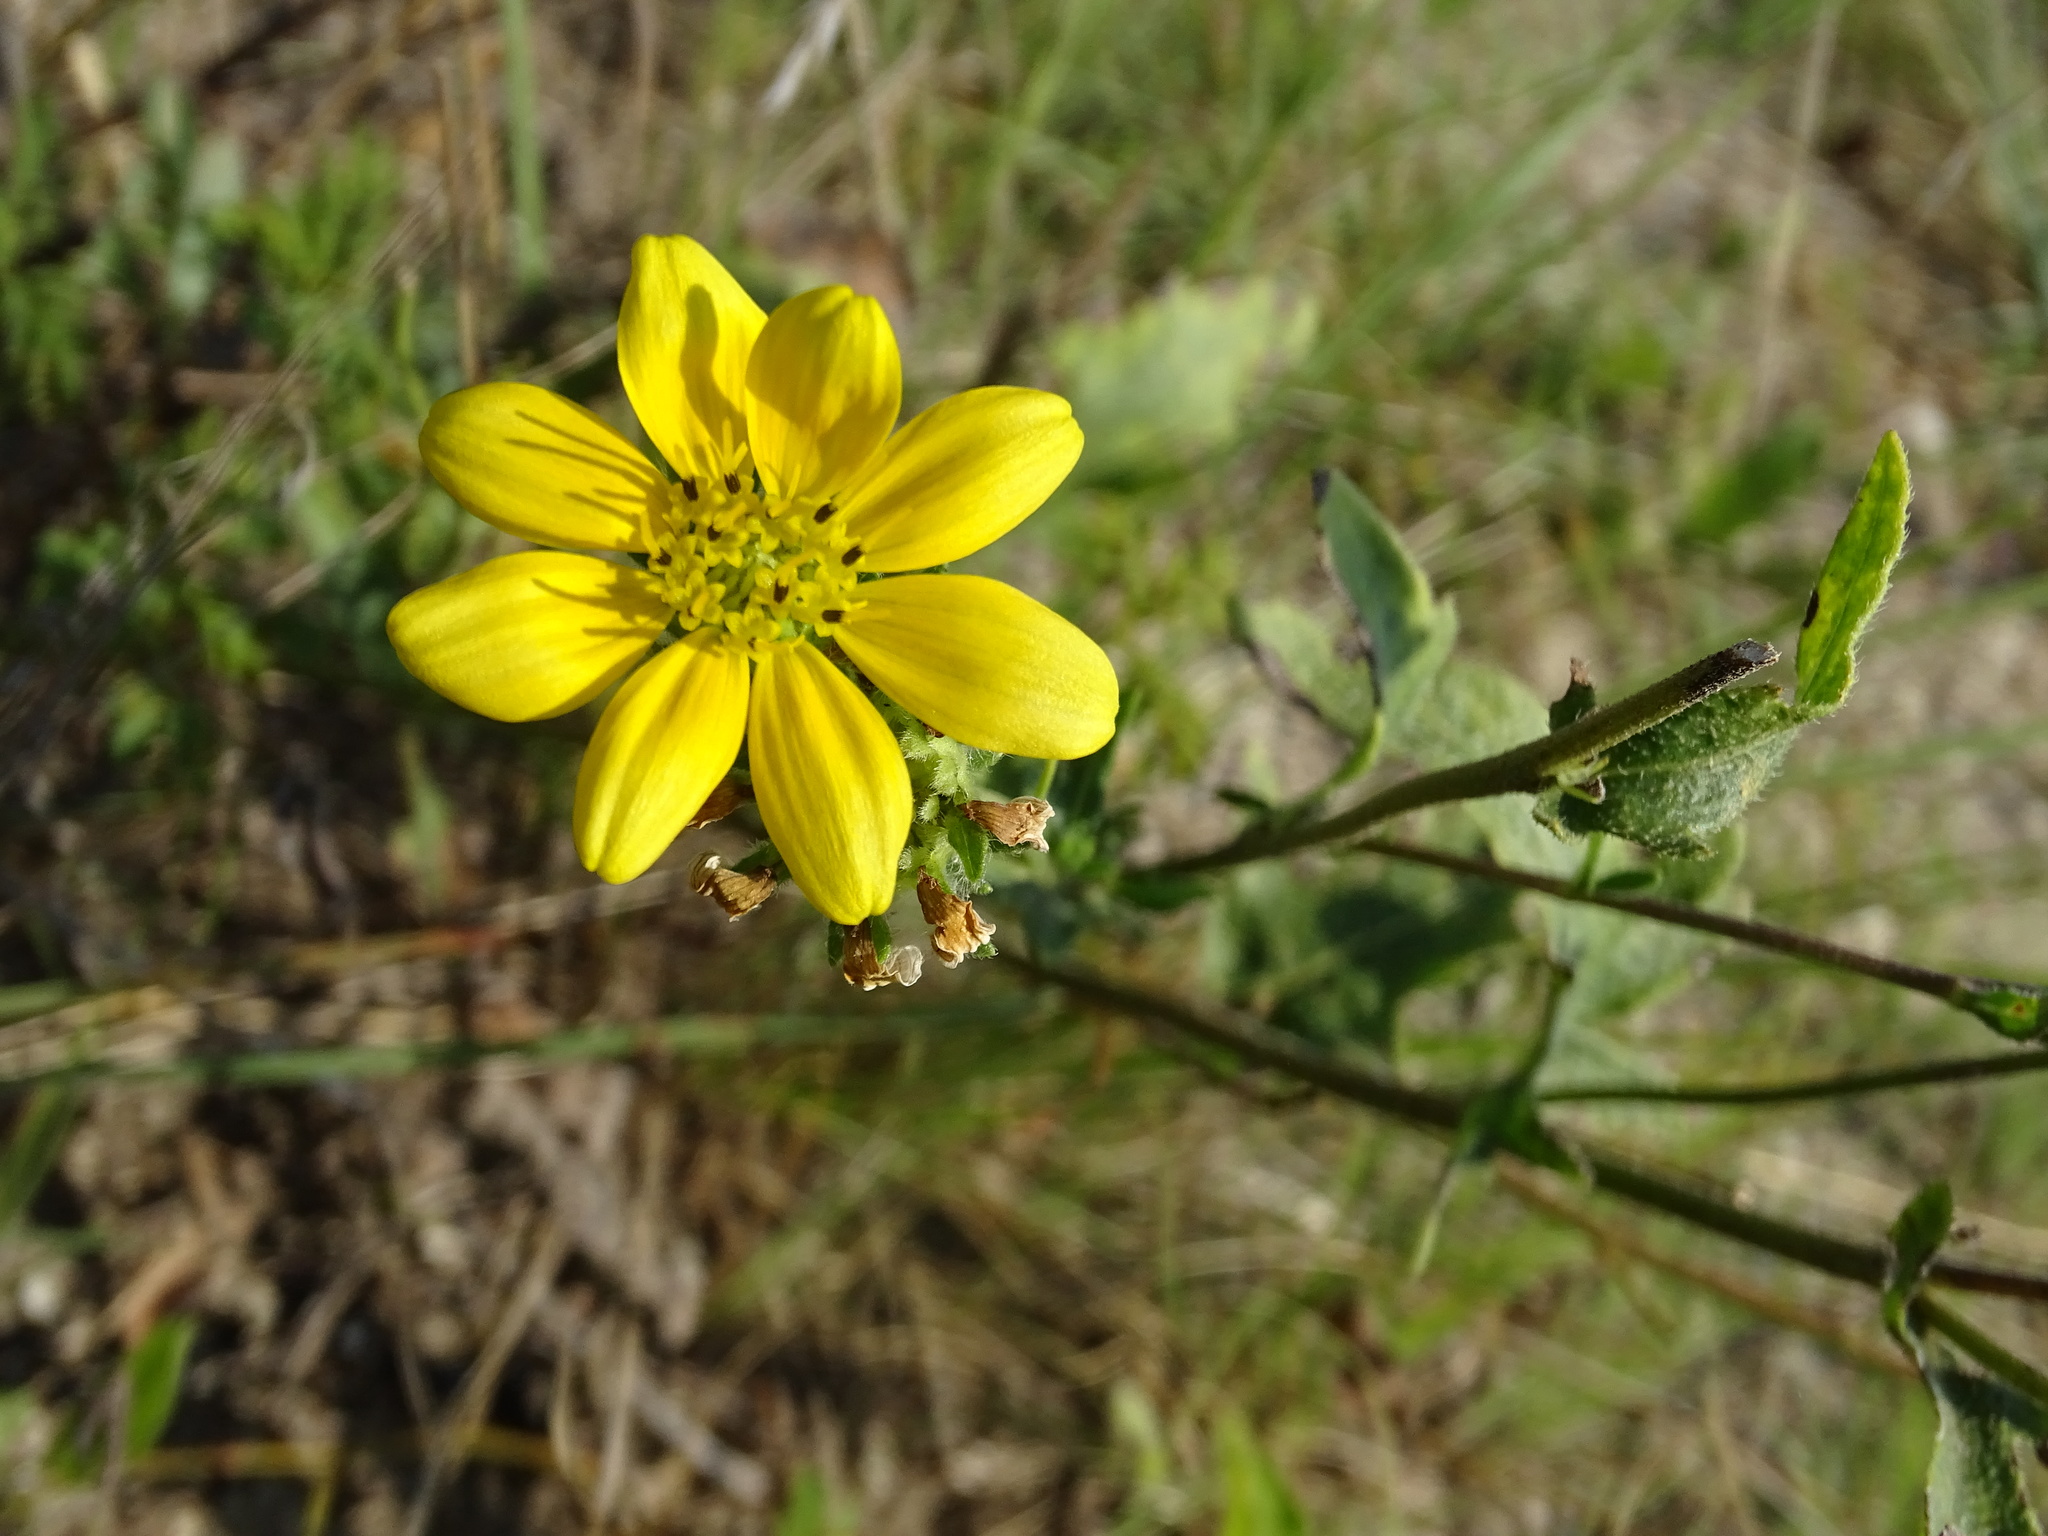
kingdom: Plantae
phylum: Tracheophyta
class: Magnoliopsida
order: Asterales
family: Asteraceae
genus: Engelmannia
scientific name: Engelmannia peristenia
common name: Engelmann's daisy
